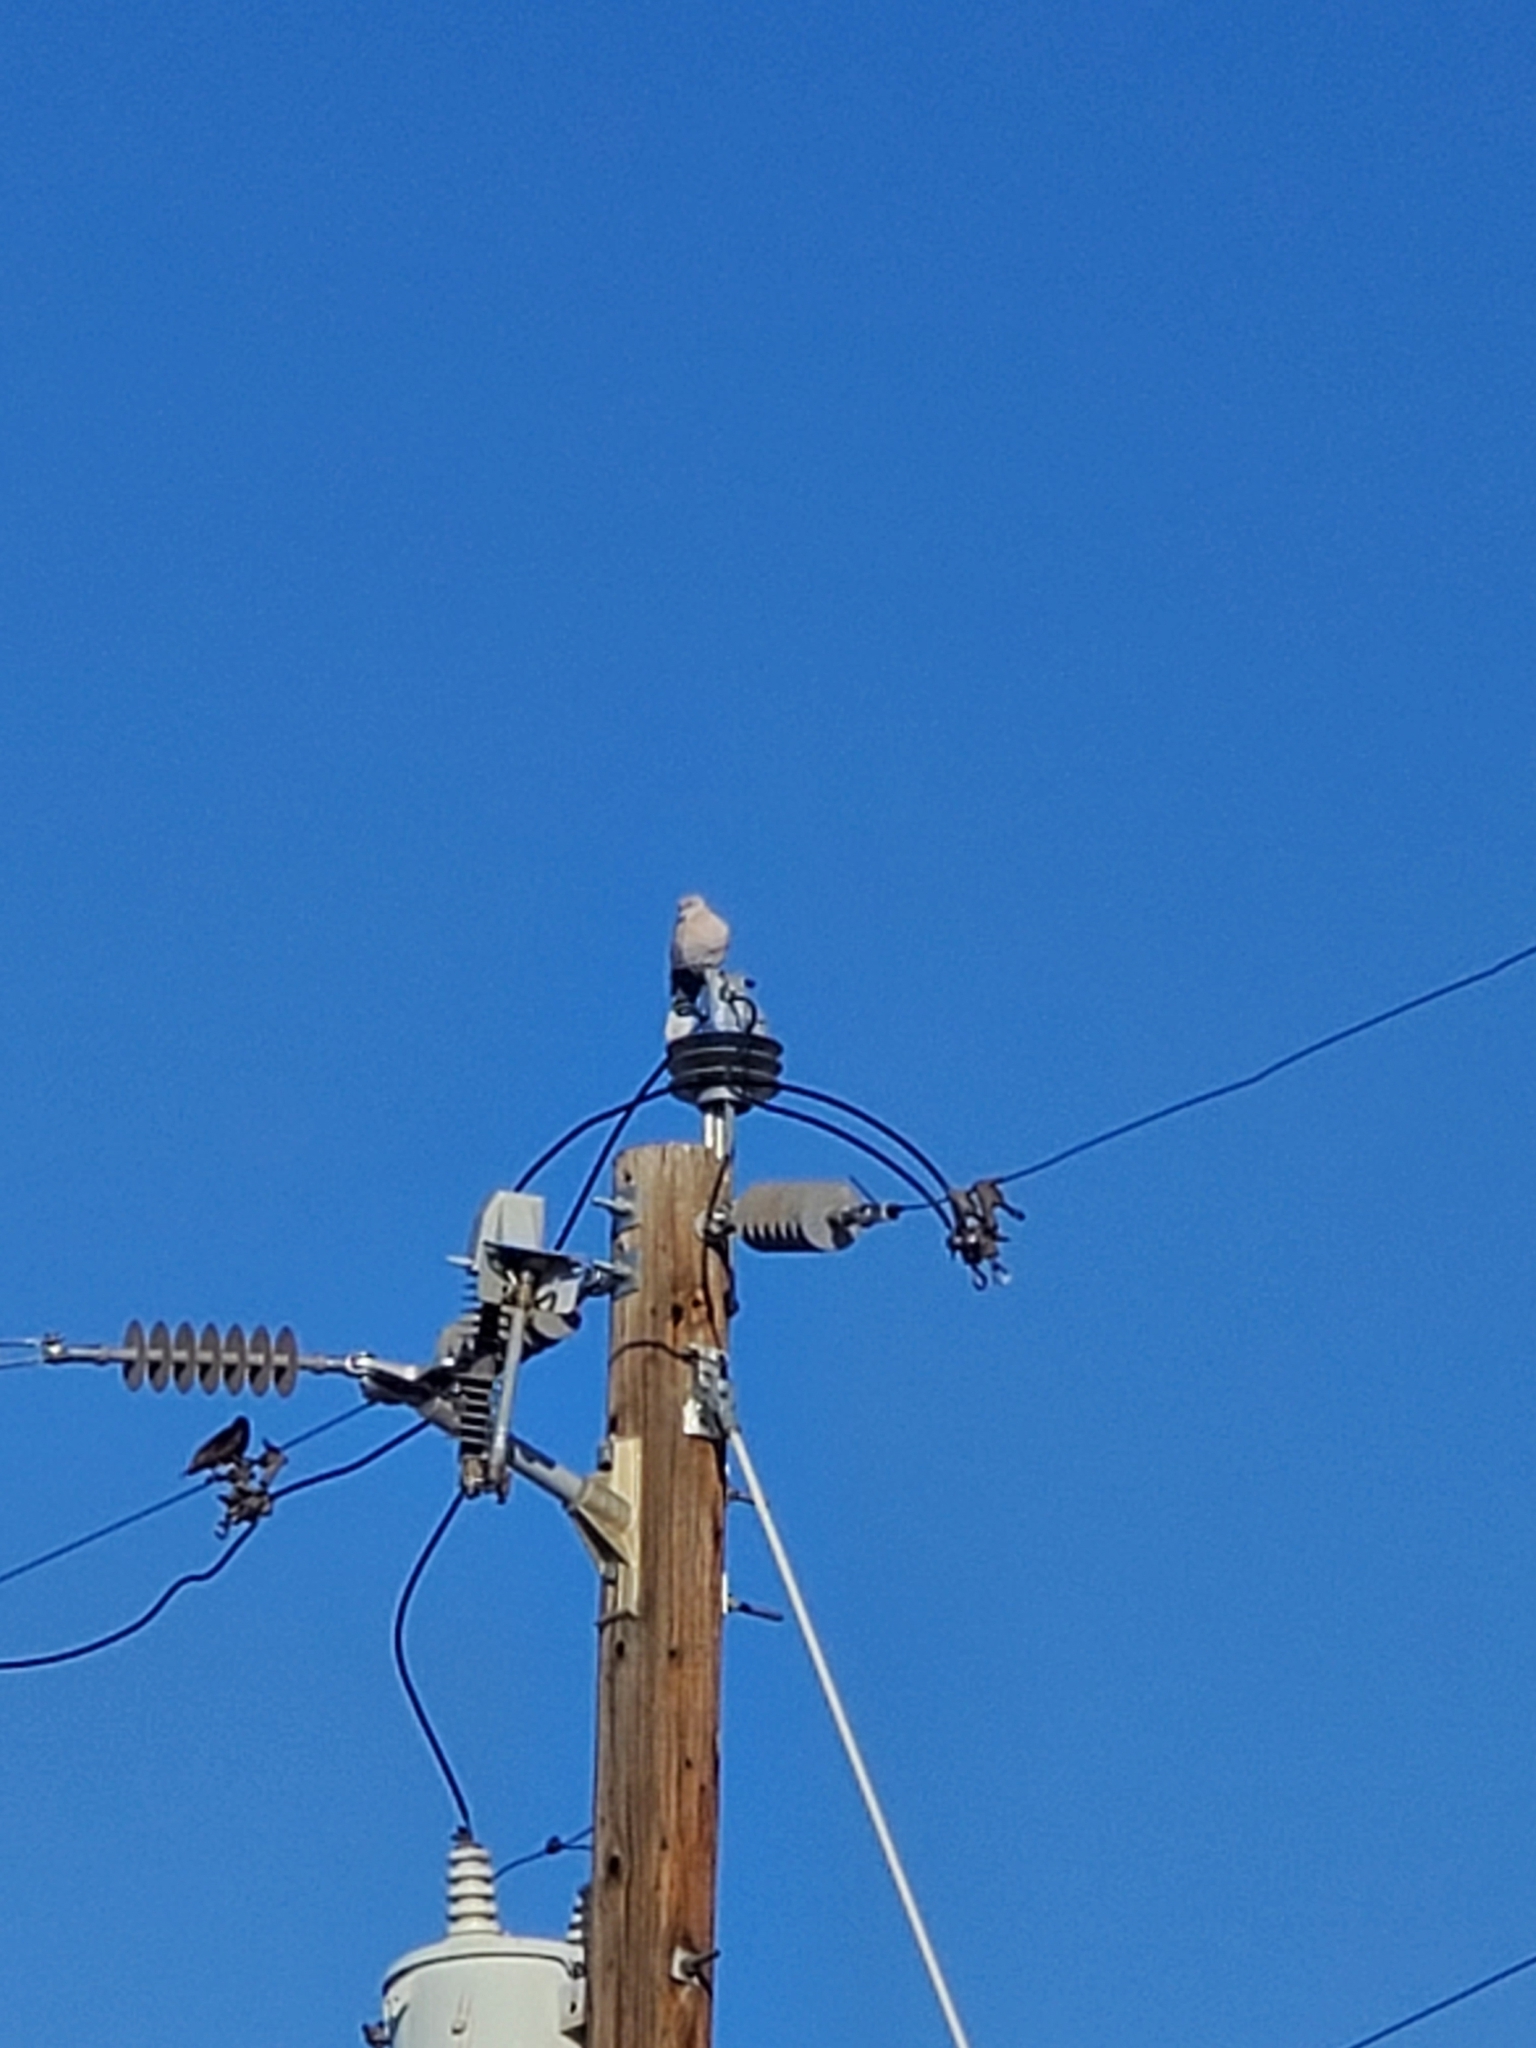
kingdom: Animalia
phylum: Chordata
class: Aves
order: Columbiformes
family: Columbidae
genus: Streptopelia
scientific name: Streptopelia decaocto
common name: Eurasian collared dove
